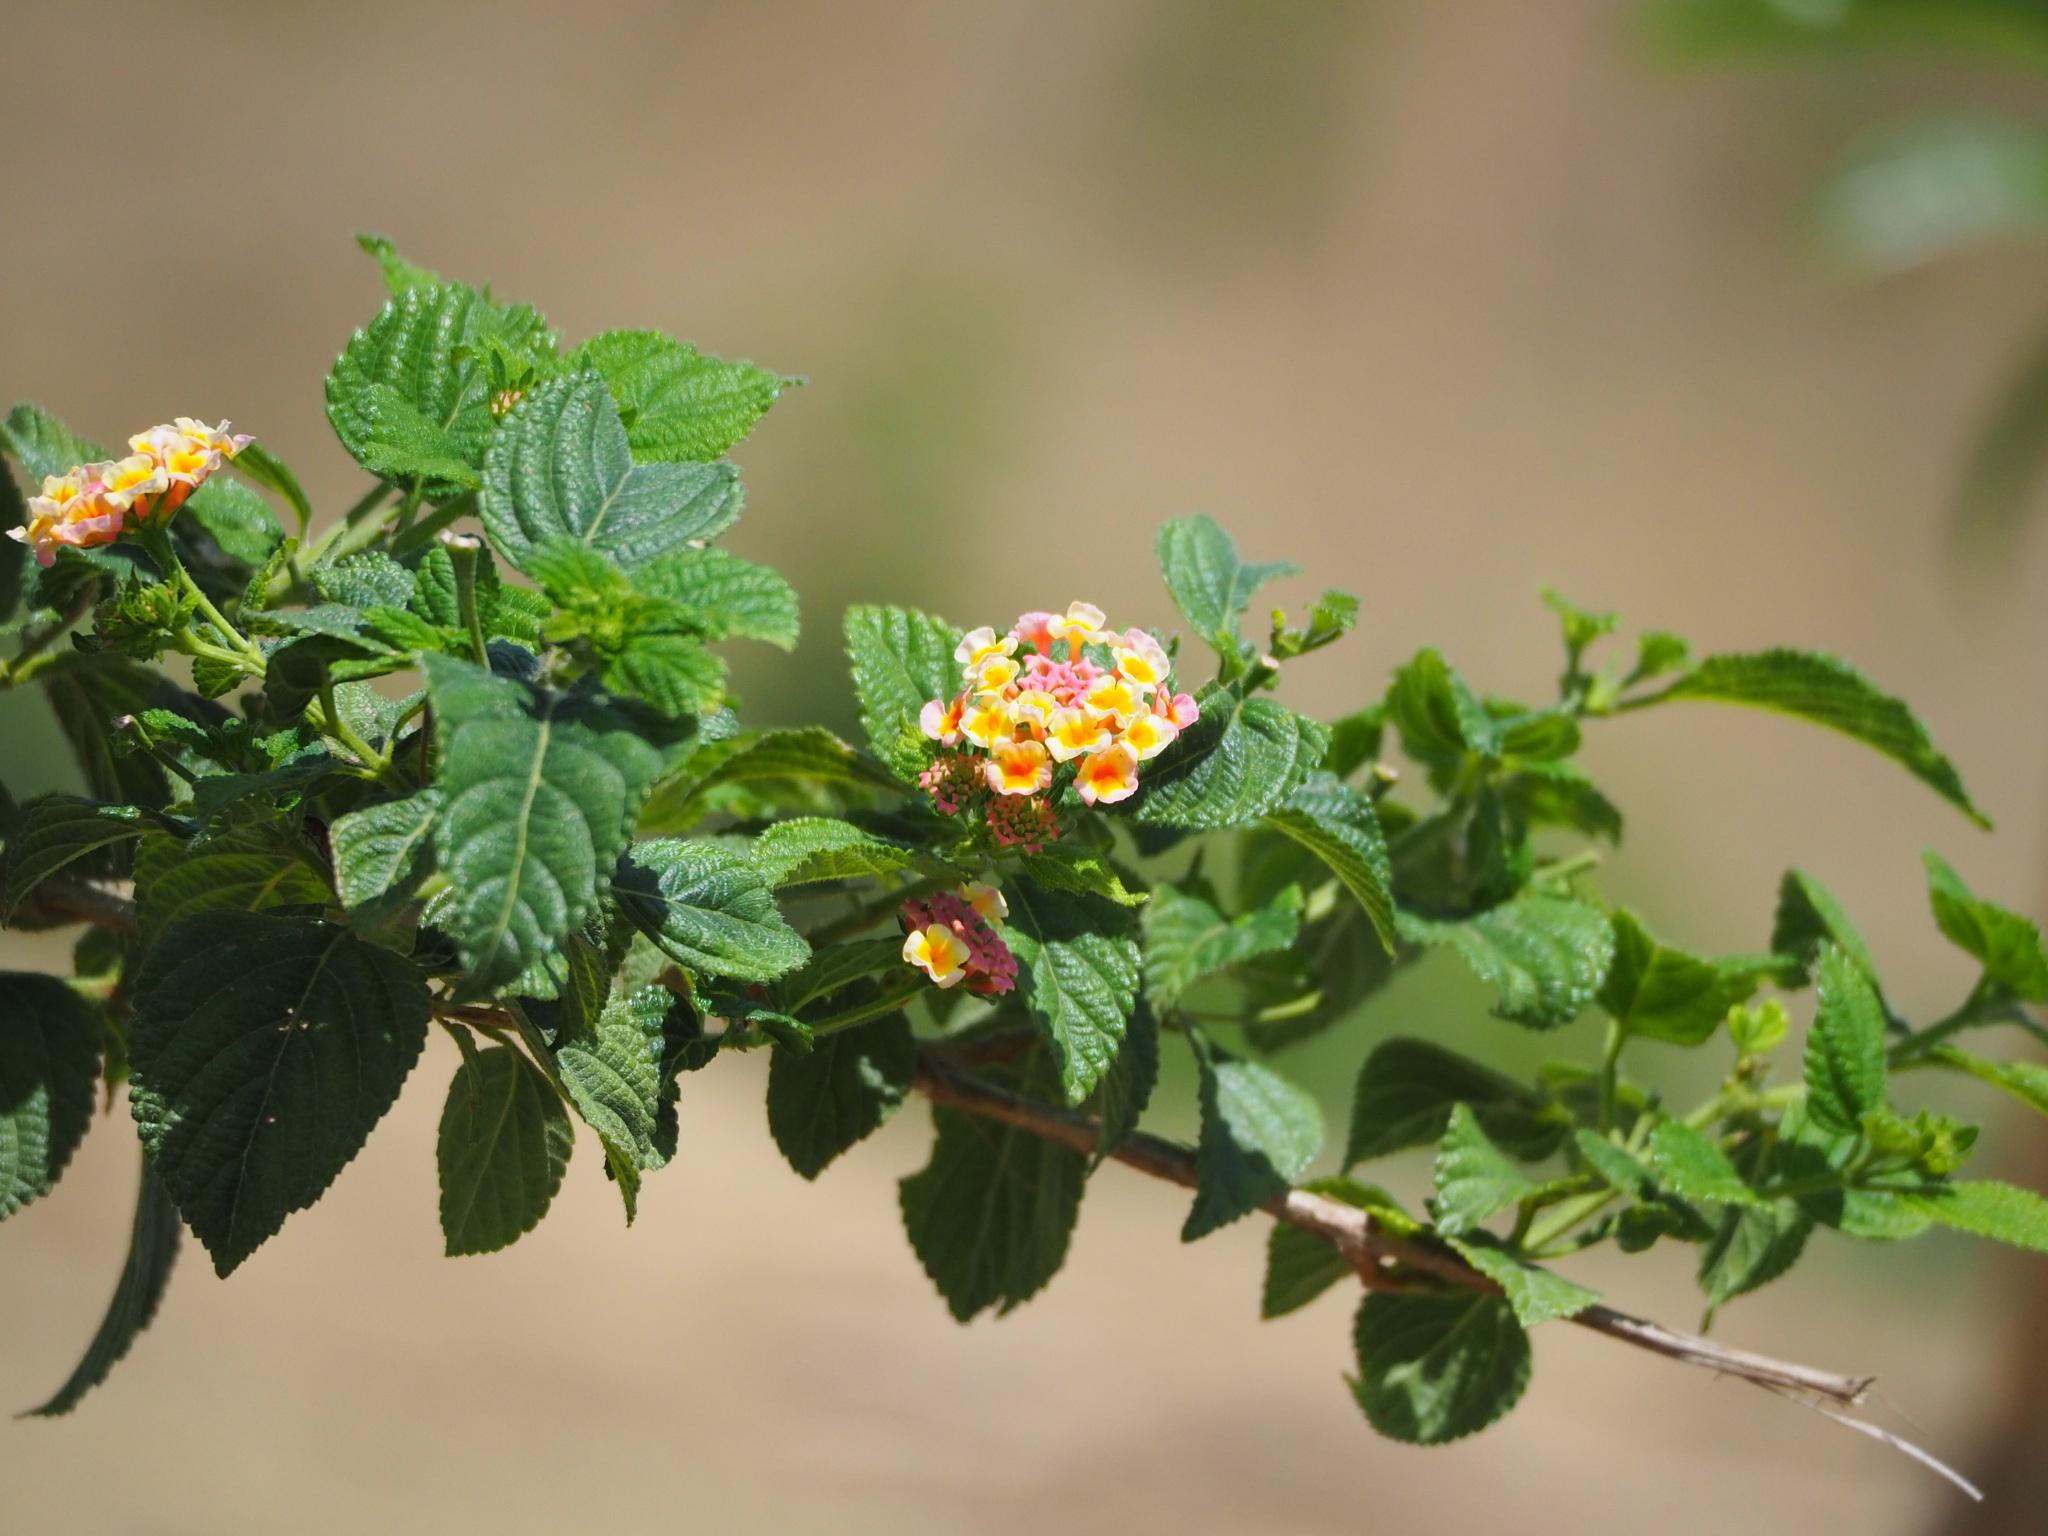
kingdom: Plantae
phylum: Tracheophyta
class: Magnoliopsida
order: Lamiales
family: Verbenaceae
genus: Lantana
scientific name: Lantana camara
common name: Lantana
